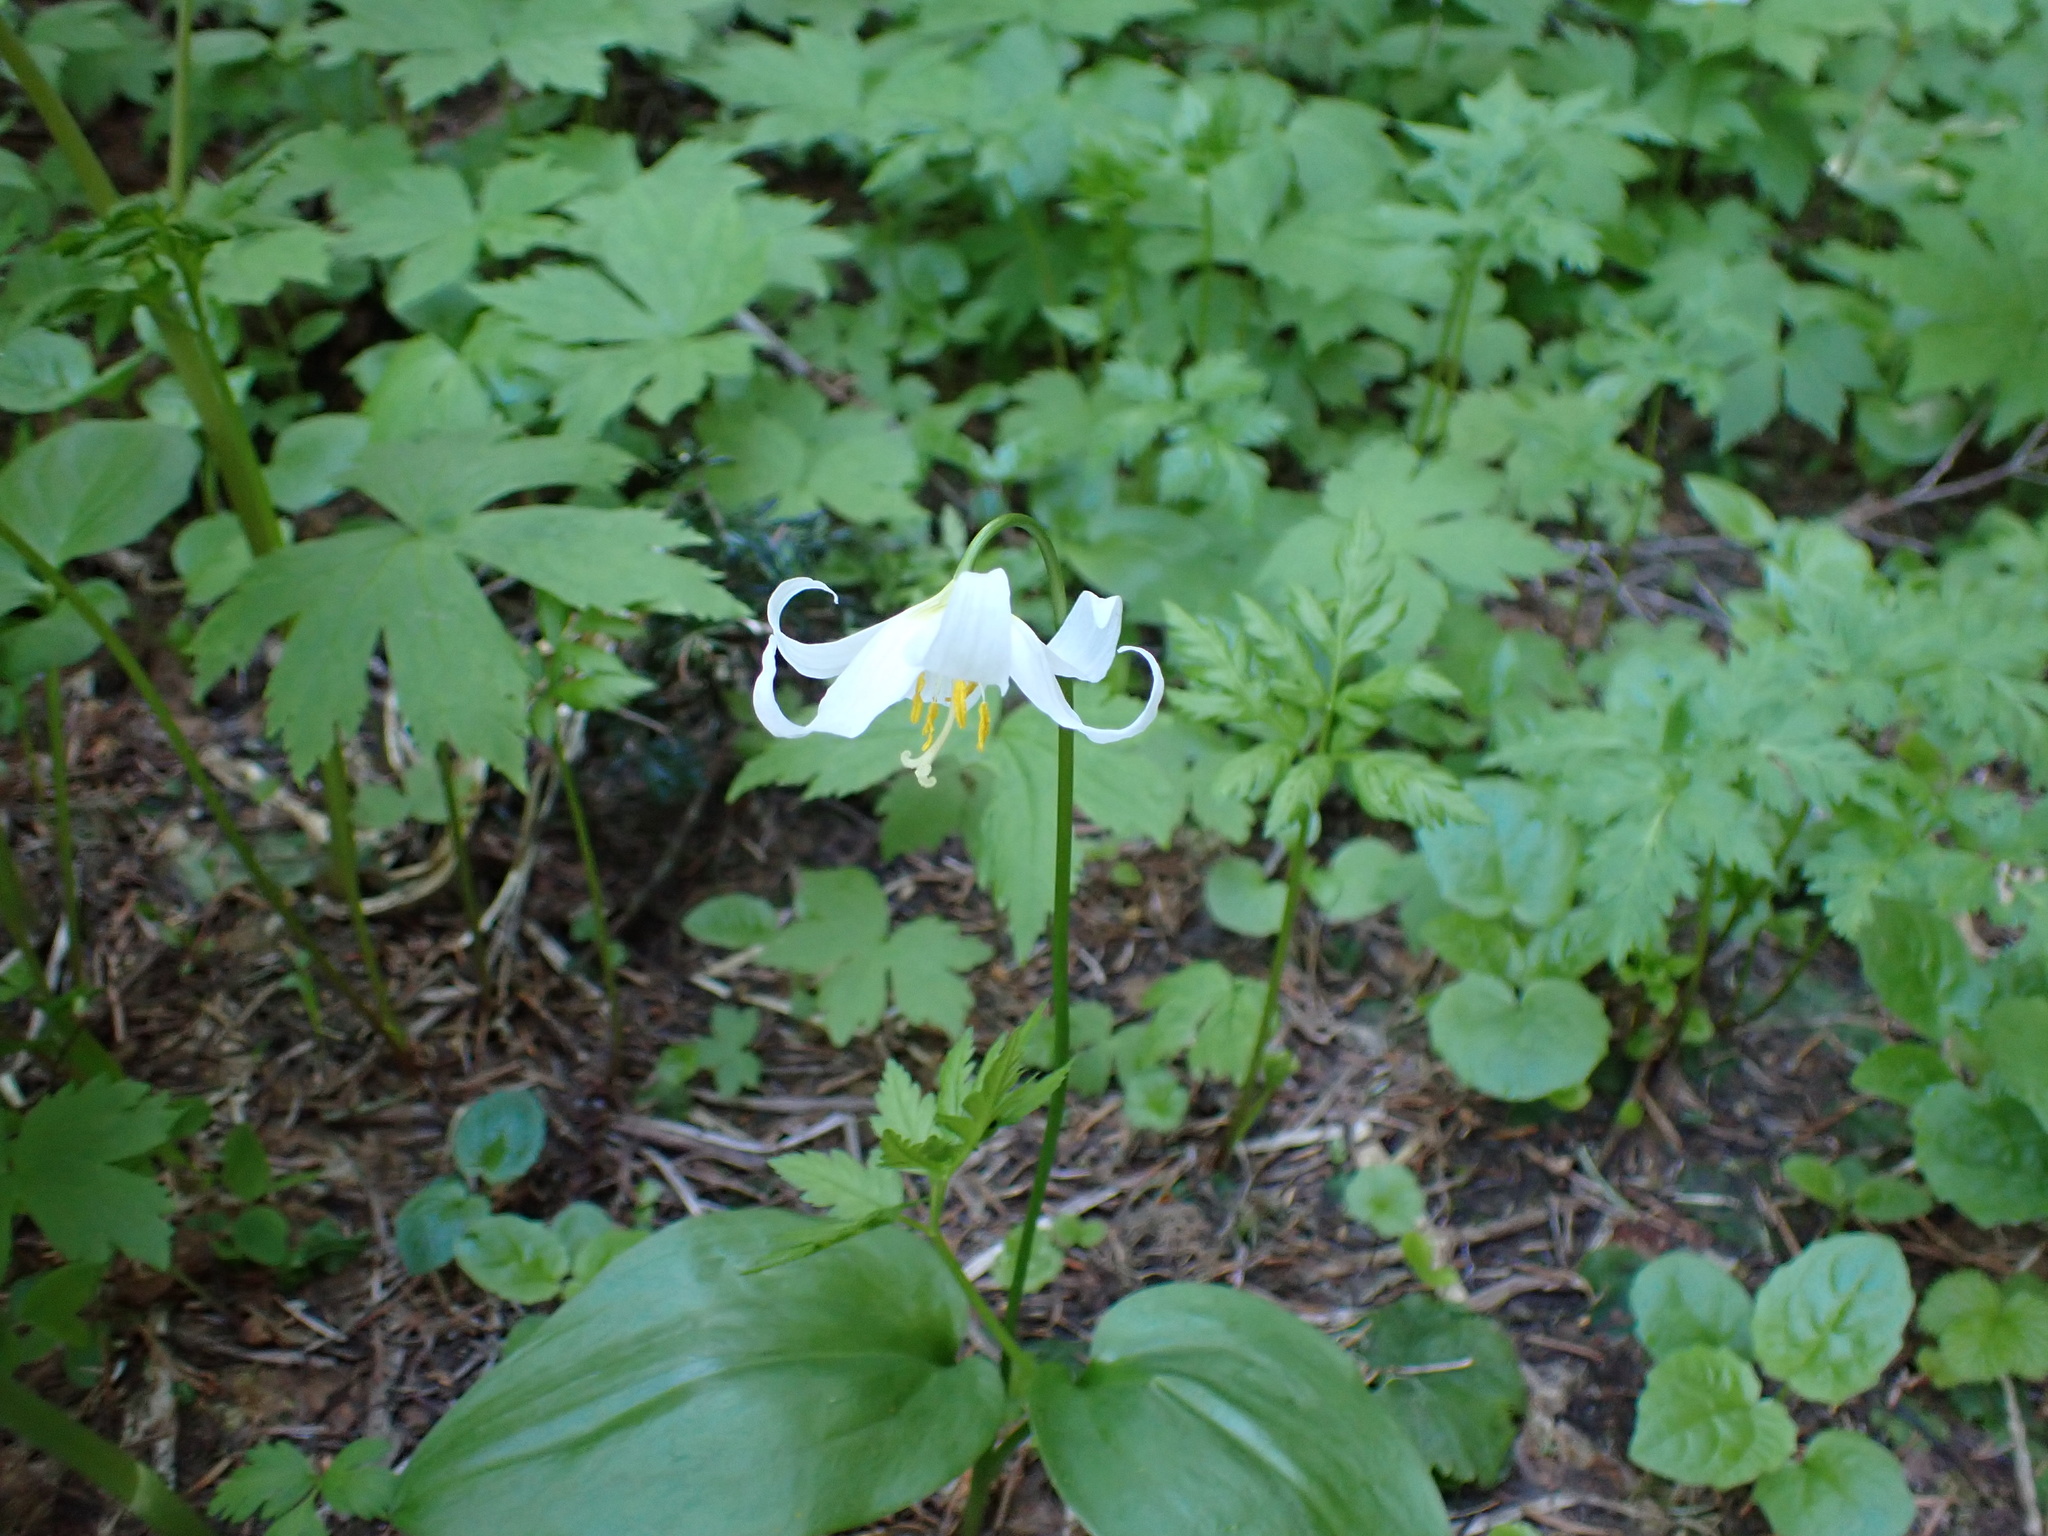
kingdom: Plantae
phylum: Tracheophyta
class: Liliopsida
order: Liliales
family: Liliaceae
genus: Erythronium
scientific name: Erythronium montanum
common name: Avalanche lily
